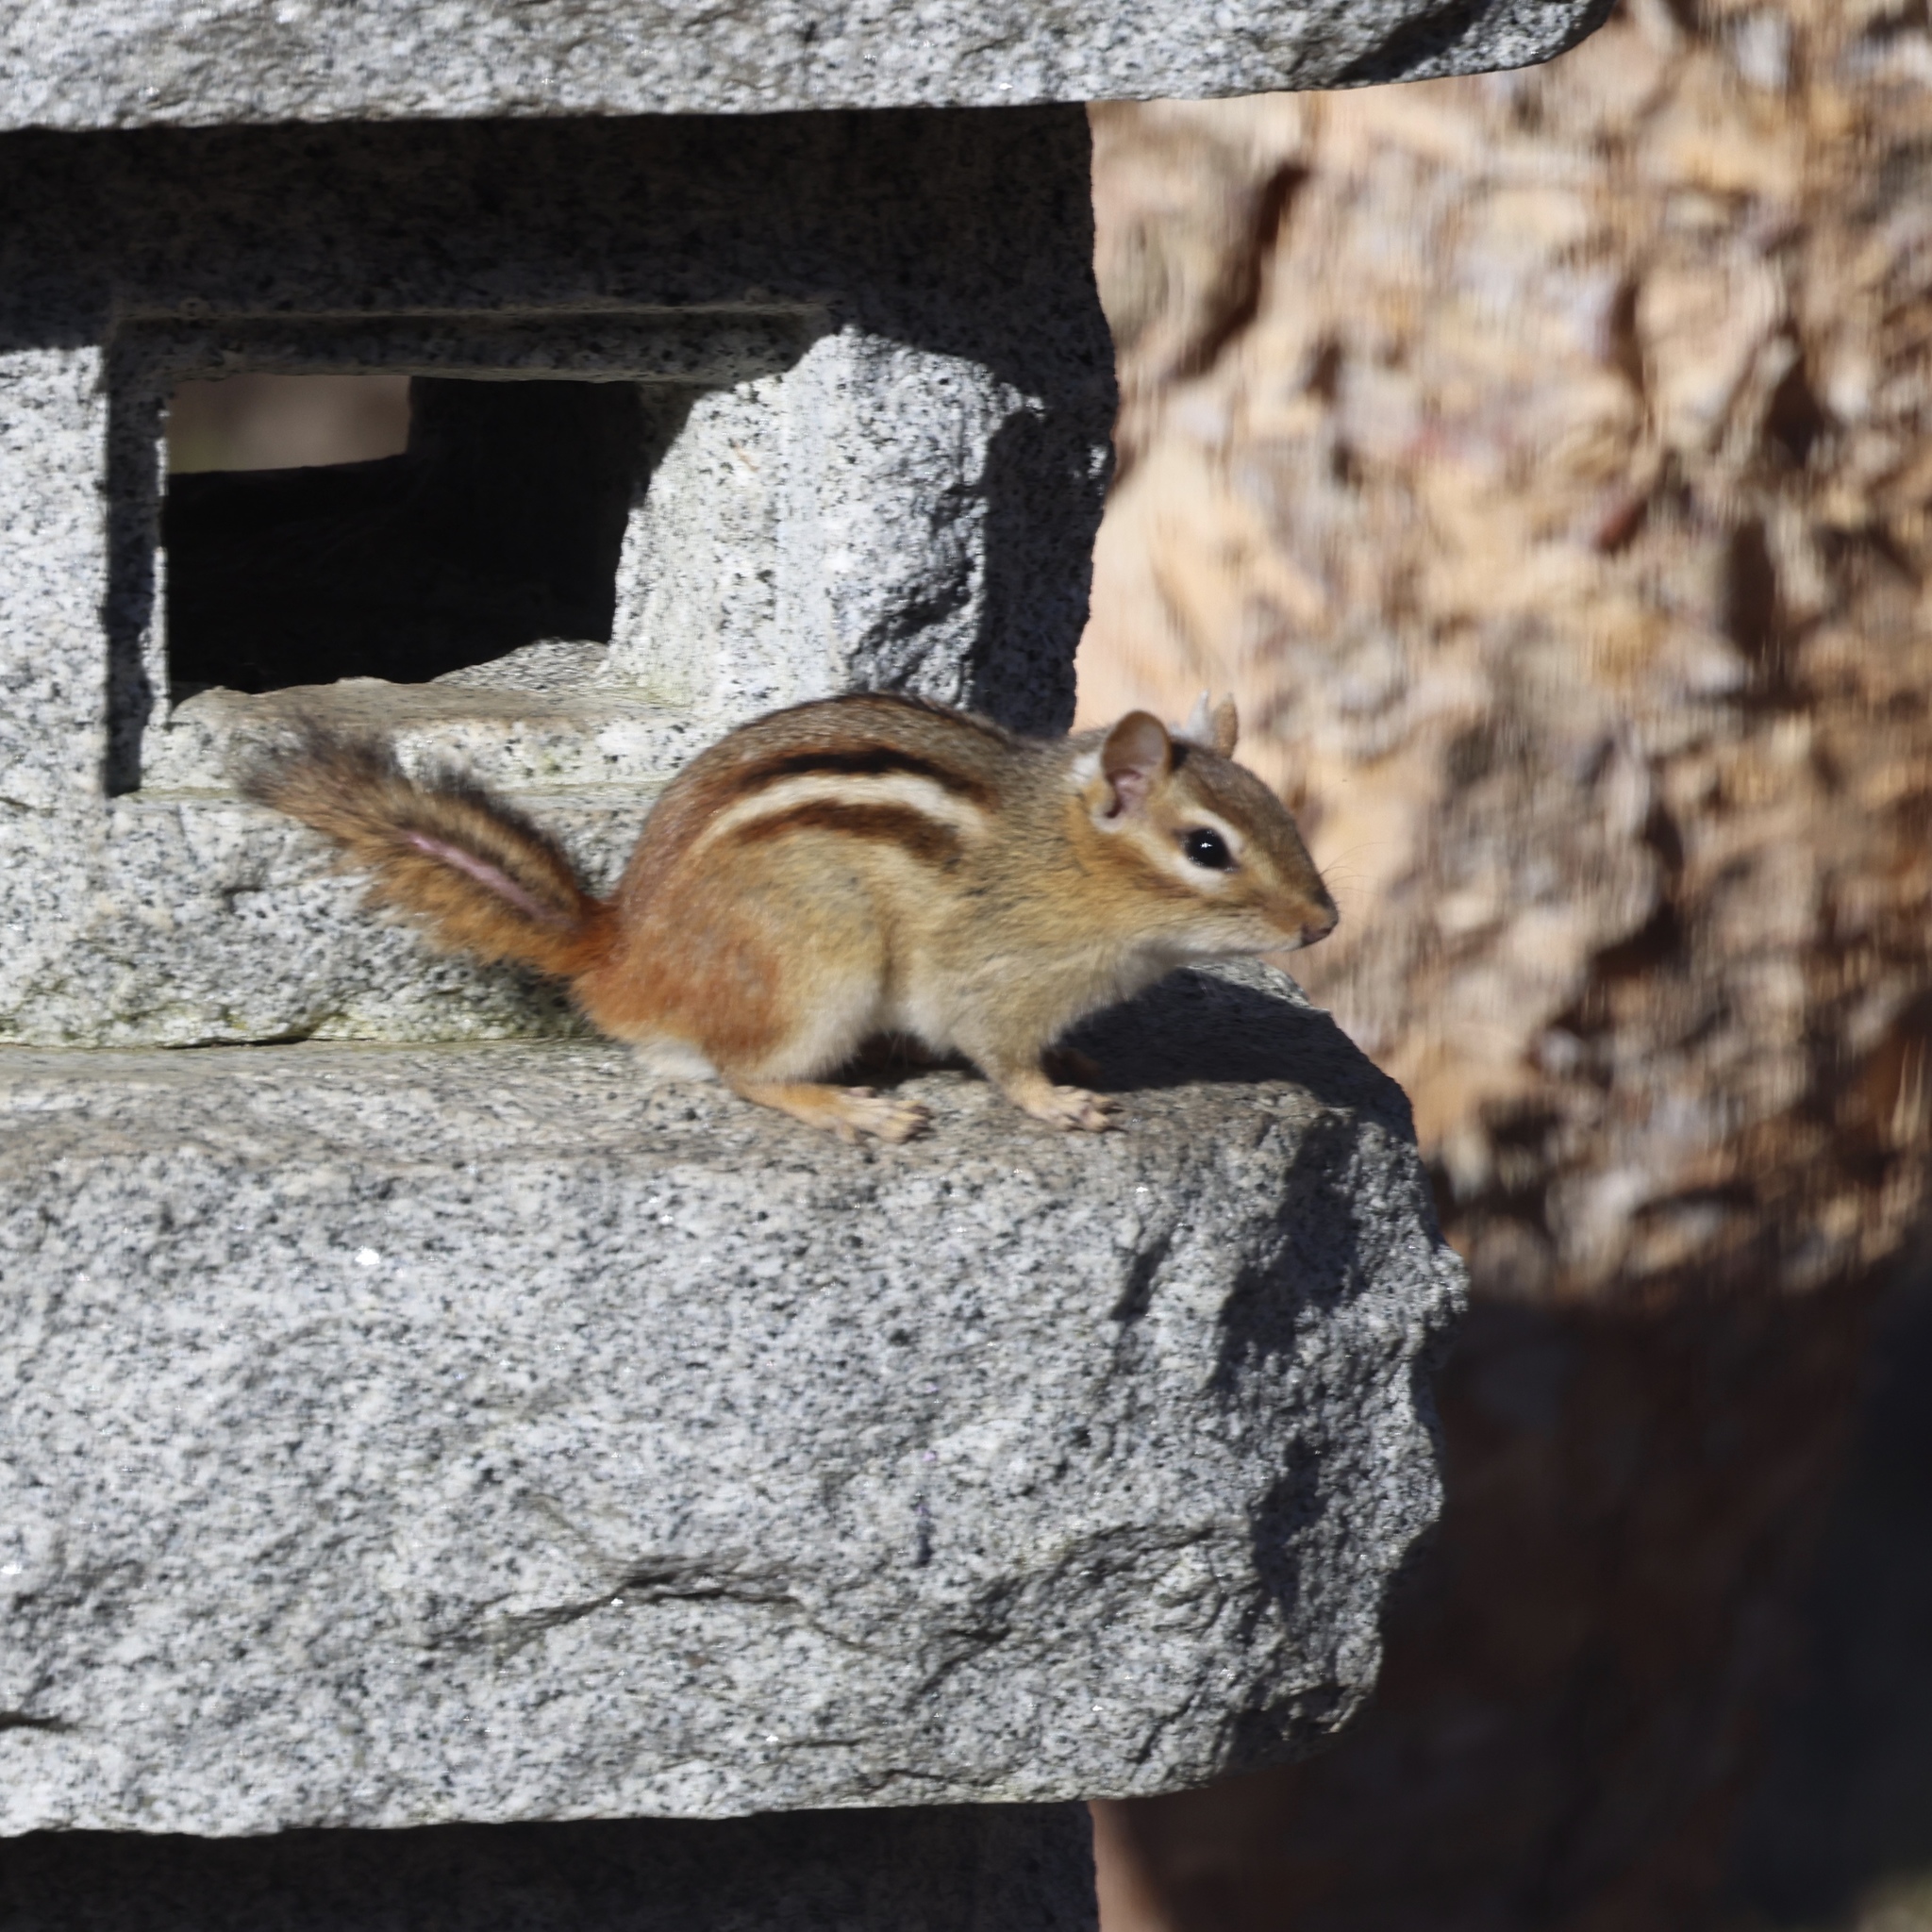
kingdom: Animalia
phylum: Chordata
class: Mammalia
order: Rodentia
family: Sciuridae
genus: Tamias
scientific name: Tamias striatus
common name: Eastern chipmunk
